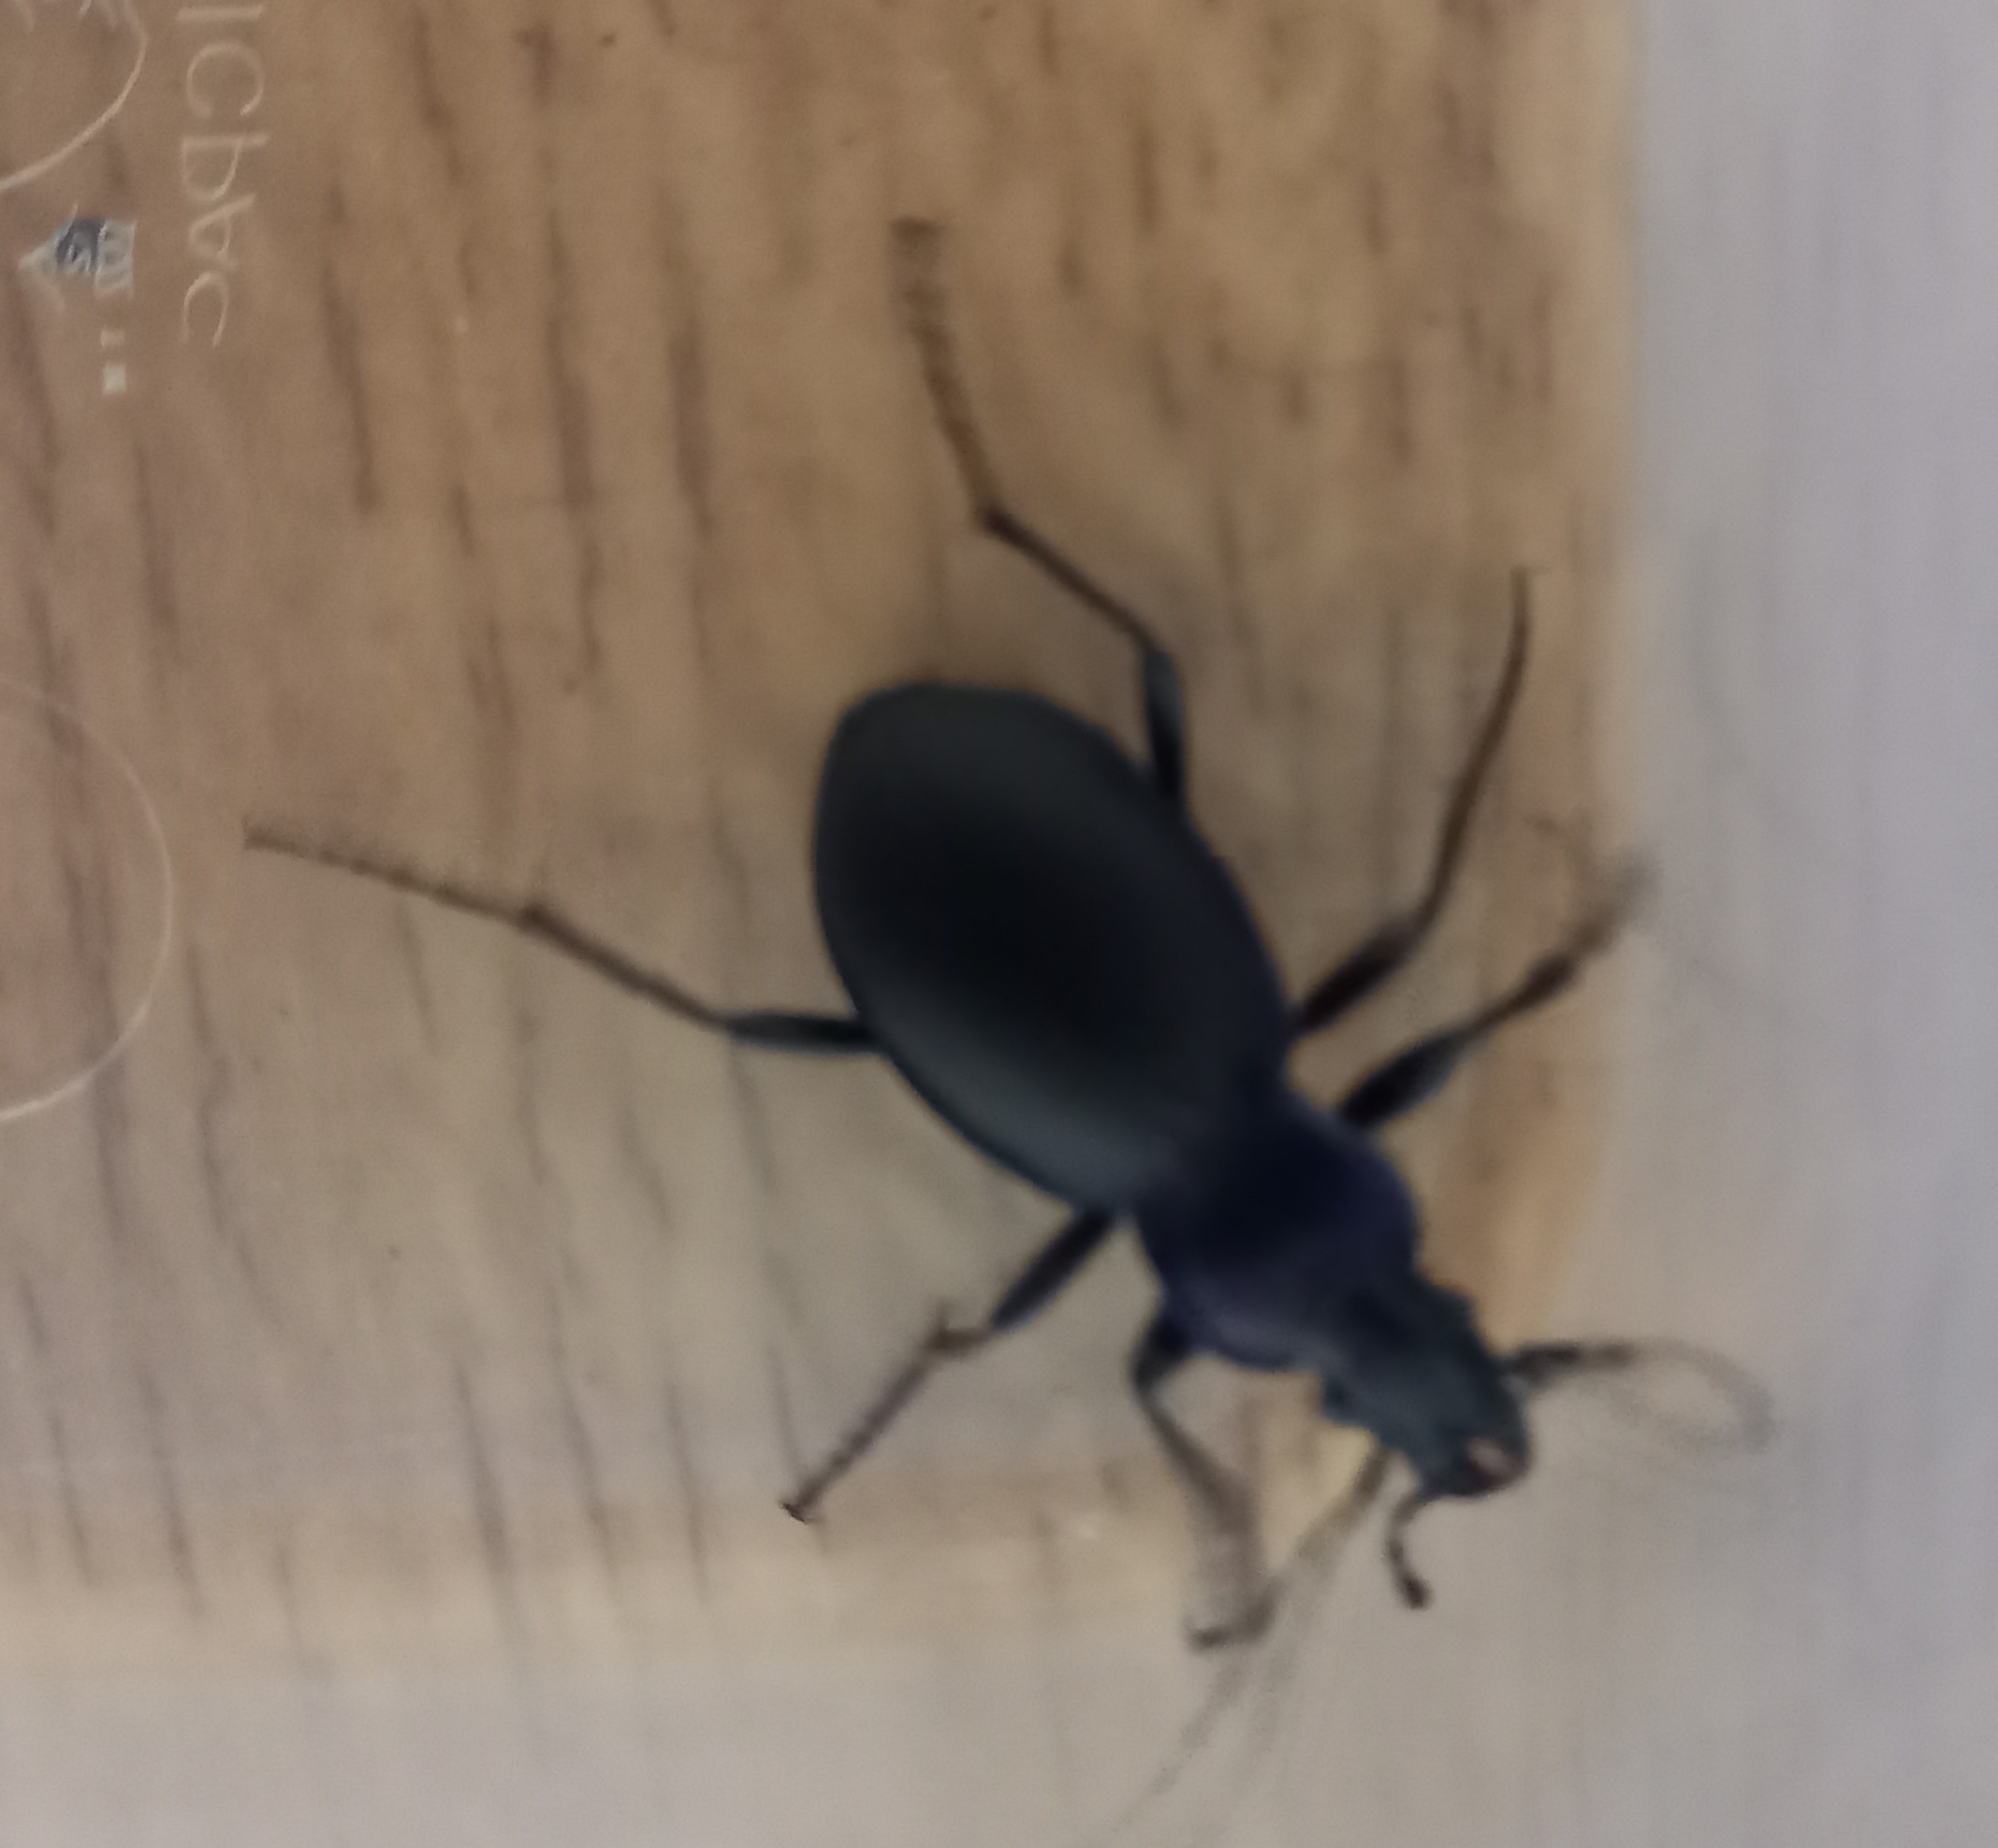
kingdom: Animalia
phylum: Arthropoda
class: Insecta
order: Coleoptera
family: Carabidae
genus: Carabus
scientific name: Carabus problematicus
